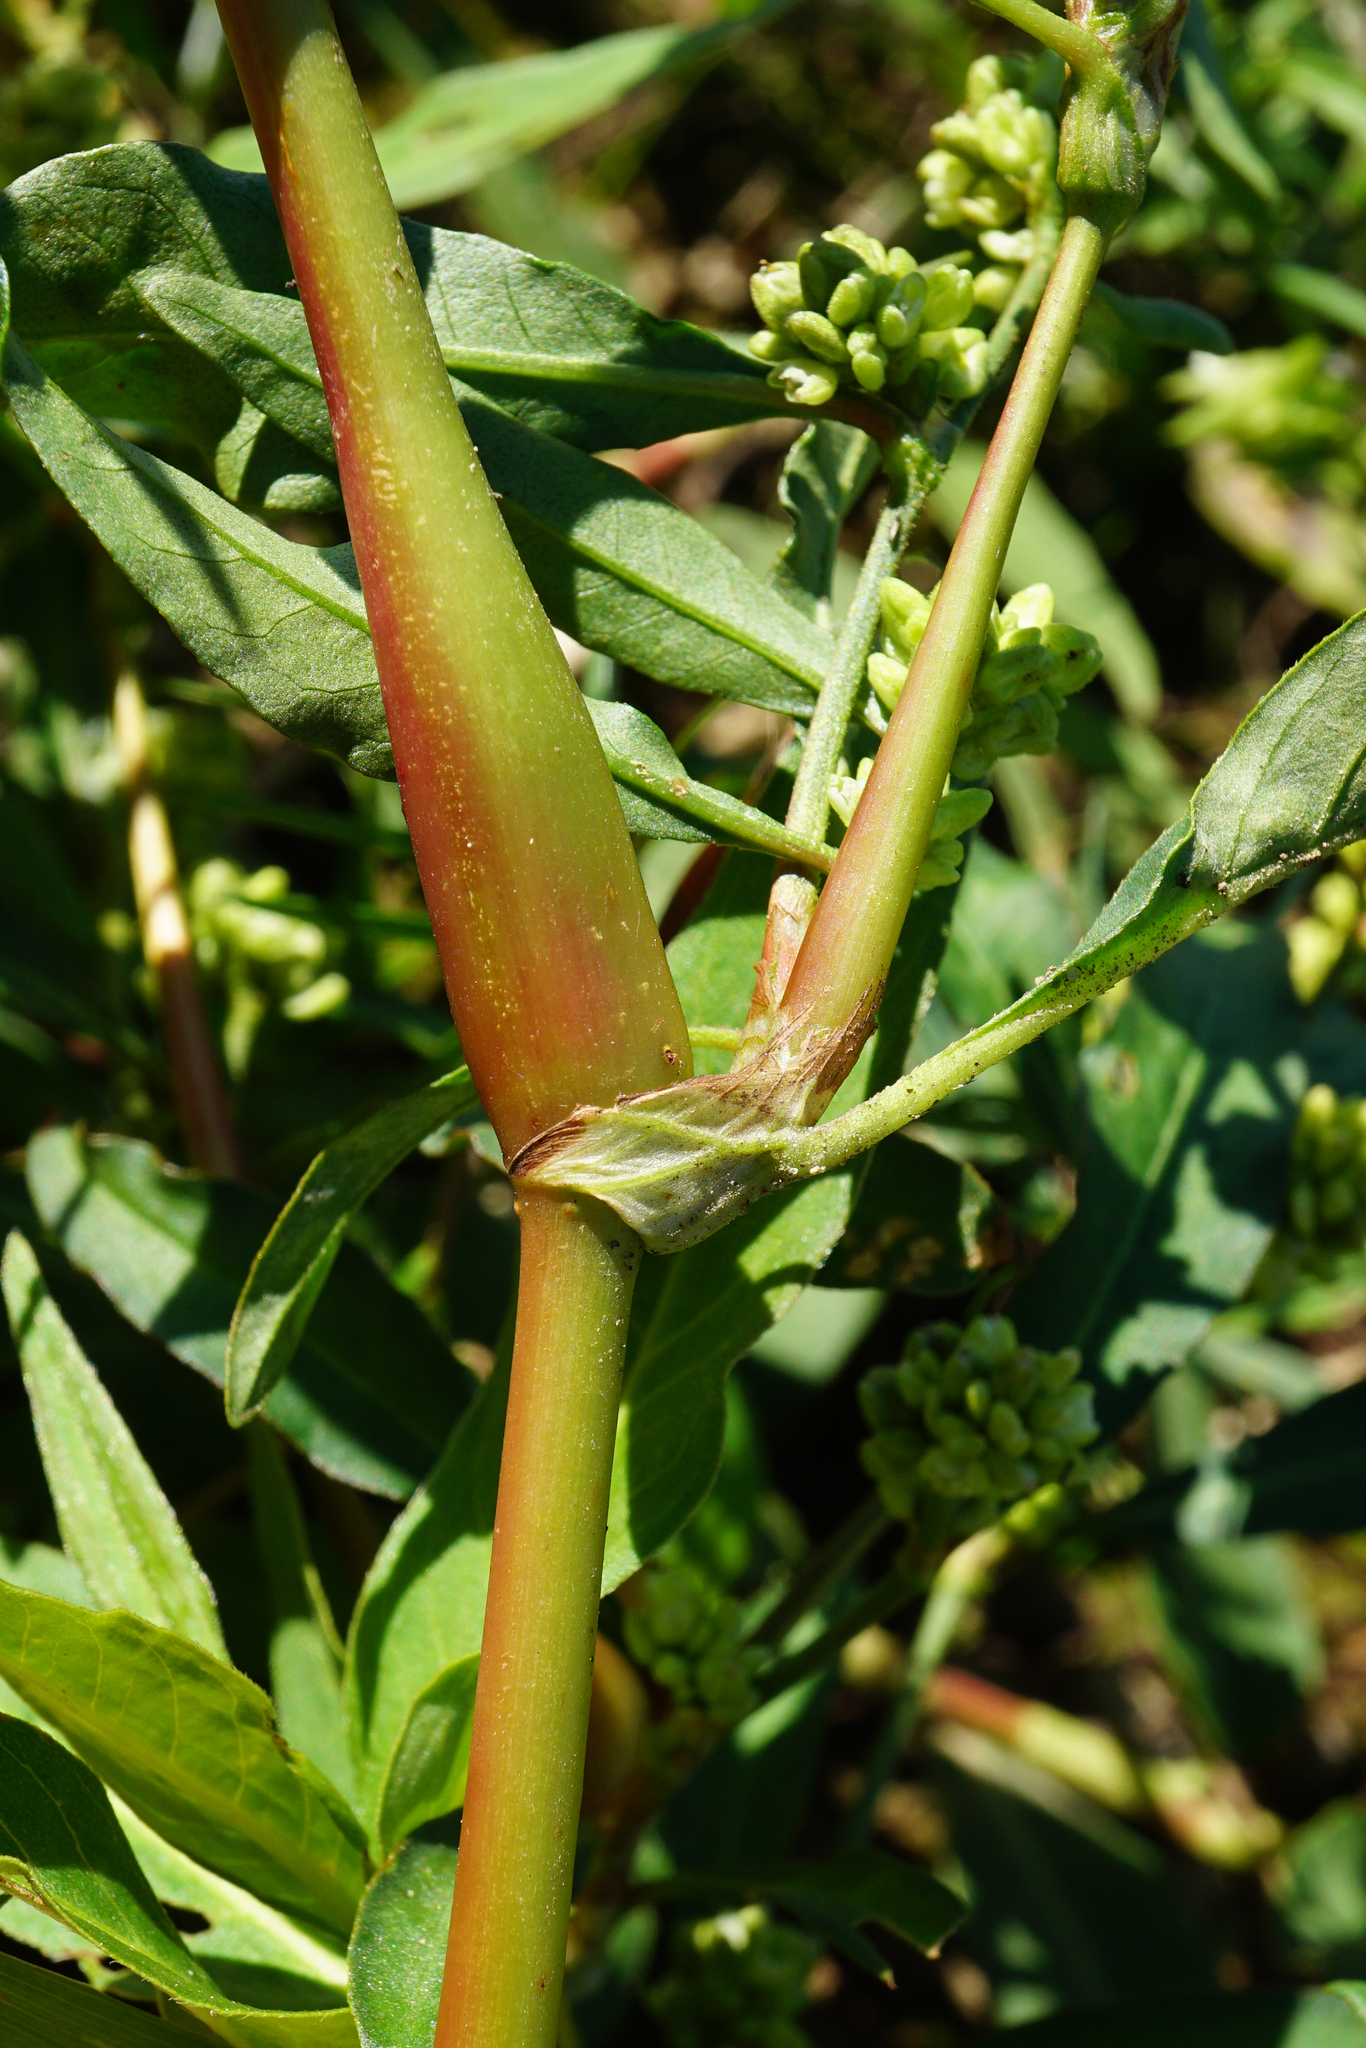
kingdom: Plantae
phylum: Tracheophyta
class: Magnoliopsida
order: Caryophyllales
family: Polygonaceae
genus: Persicaria
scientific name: Persicaria lapathifolia
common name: Curlytop knotweed
